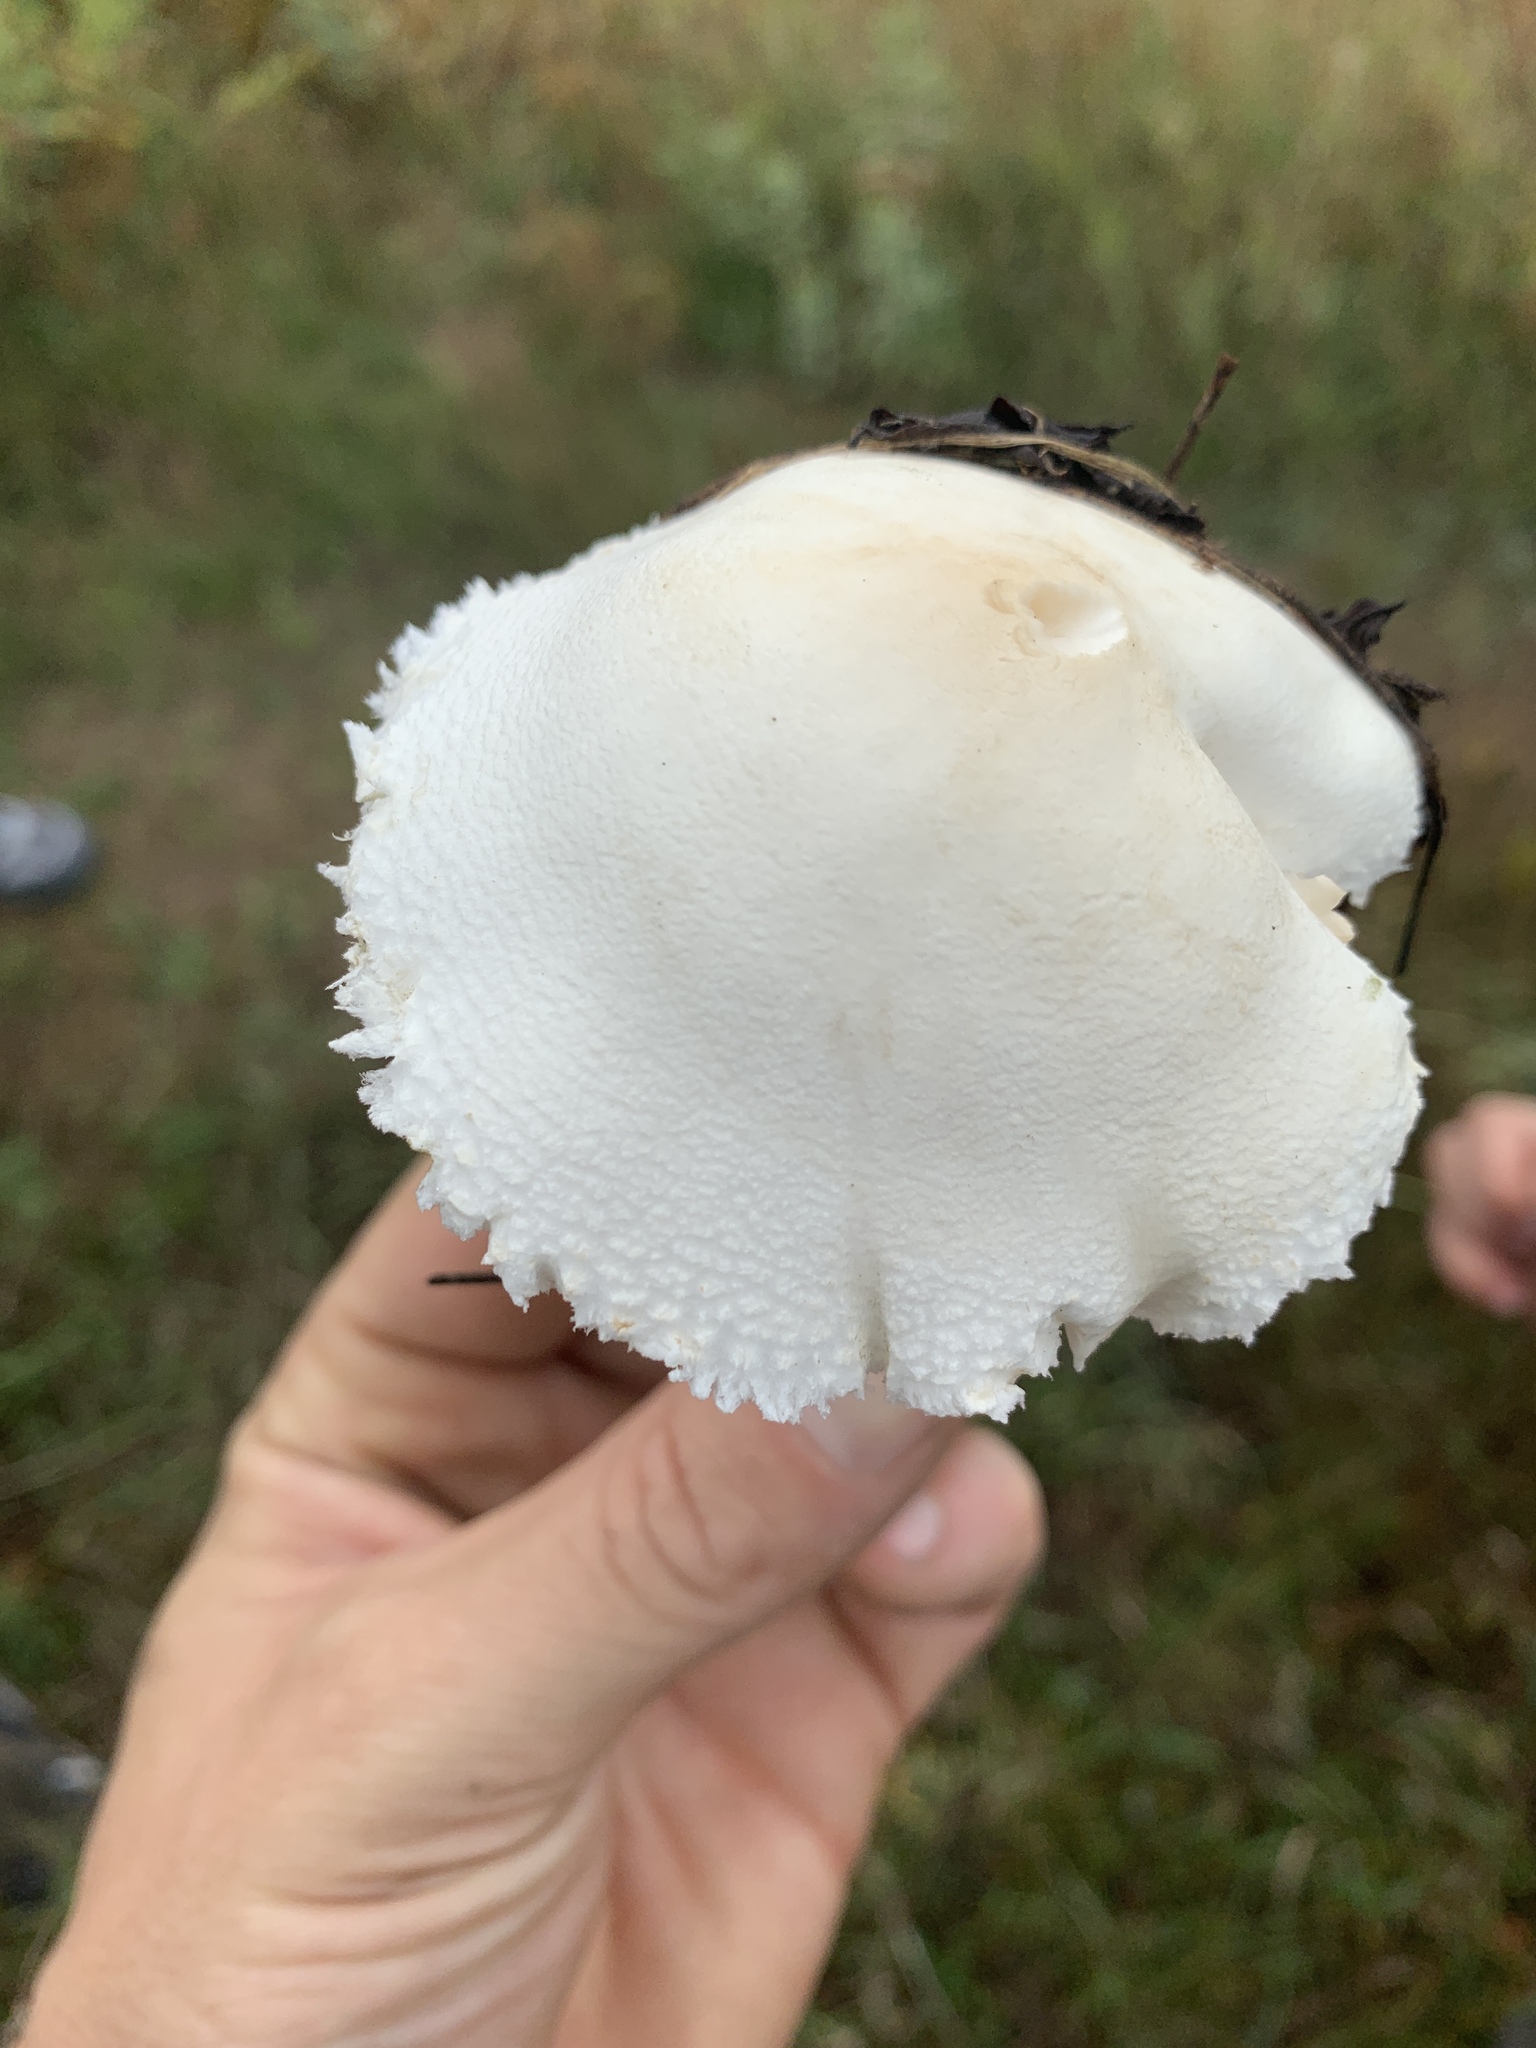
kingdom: Fungi
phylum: Basidiomycota
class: Agaricomycetes
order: Agaricales
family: Agaricaceae
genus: Leucoagaricus
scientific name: Leucoagaricus leucothites
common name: White dapperling
